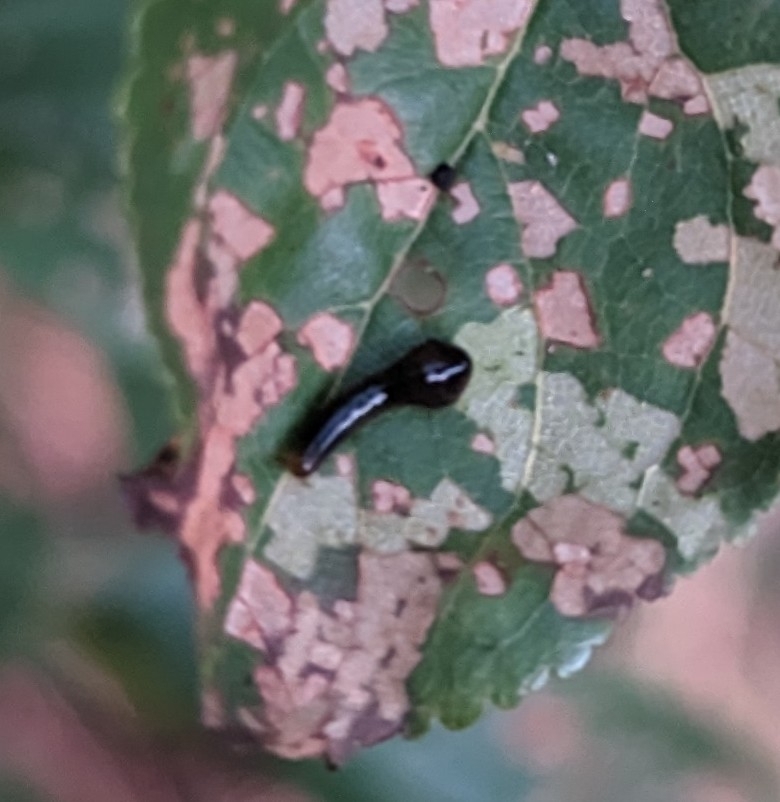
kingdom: Animalia
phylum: Arthropoda
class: Insecta
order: Hymenoptera
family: Tenthredinidae
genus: Caliroa
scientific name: Caliroa cerasi
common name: Pear sawfly
